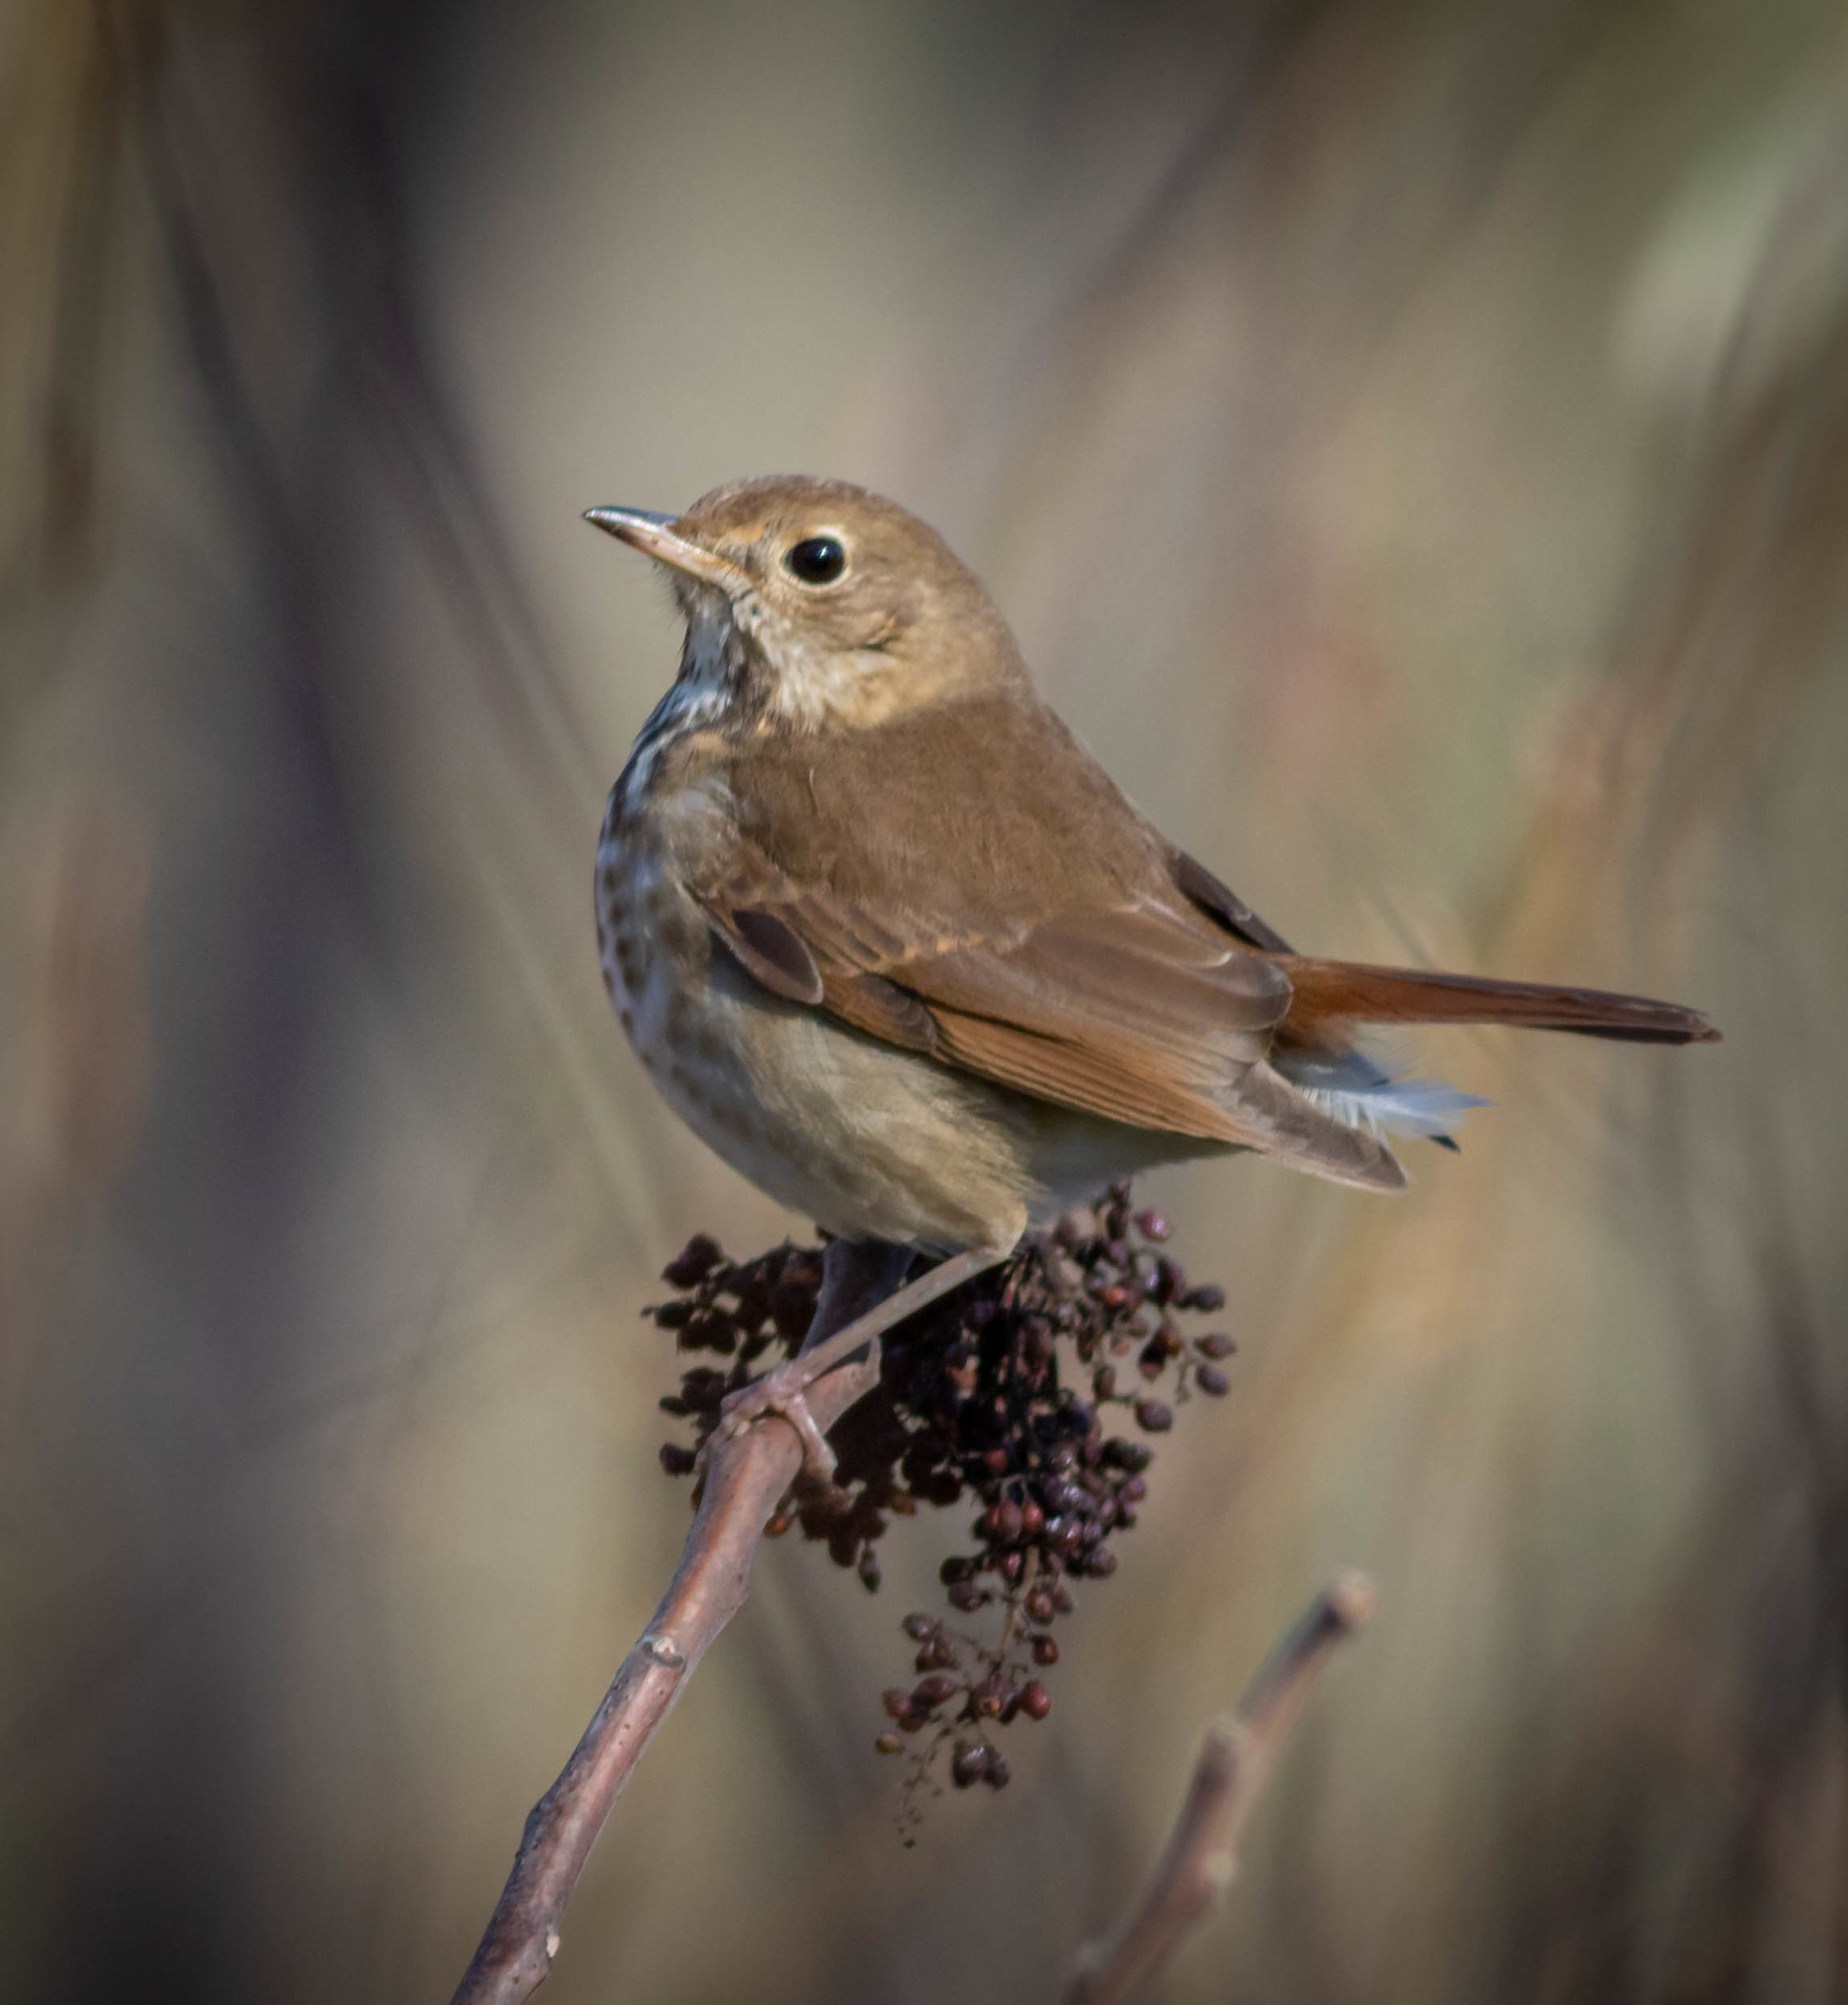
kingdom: Animalia
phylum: Chordata
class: Aves
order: Passeriformes
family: Turdidae
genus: Catharus
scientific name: Catharus guttatus
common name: Hermit thrush
